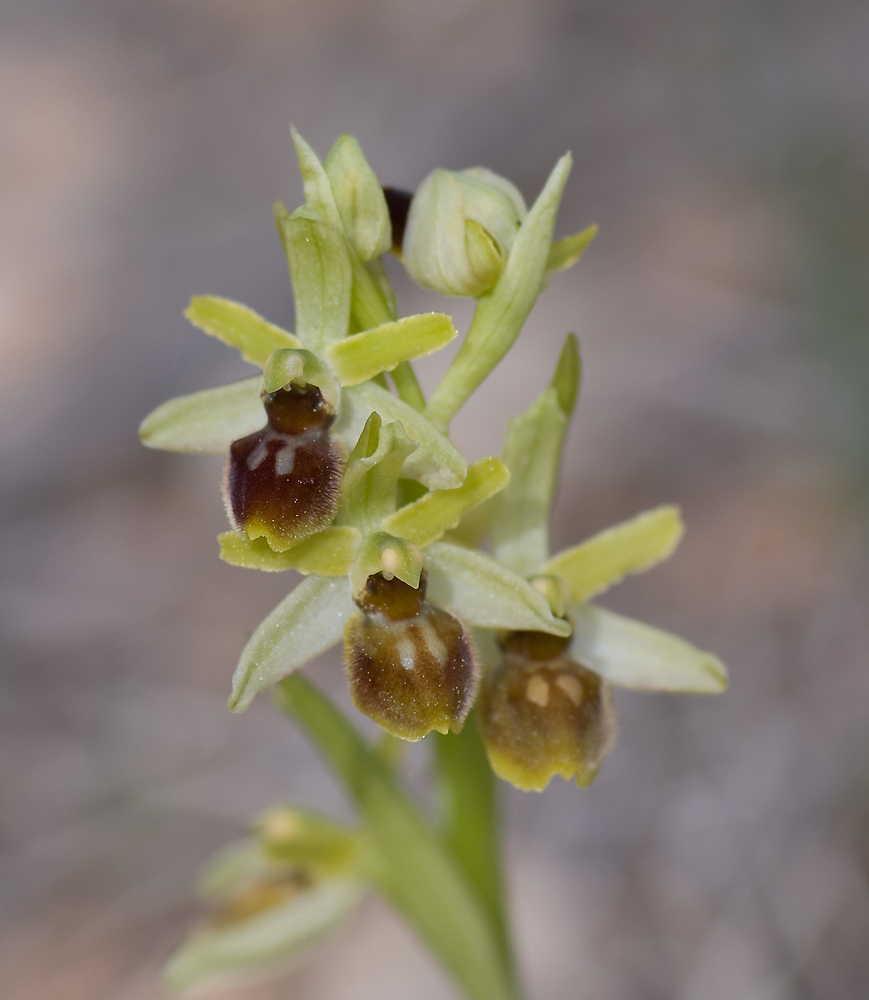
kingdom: Plantae
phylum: Tracheophyta
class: Liliopsida
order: Asparagales
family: Orchidaceae
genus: Ophrys
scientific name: Ophrys sphegodes
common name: Early spider-orchid
